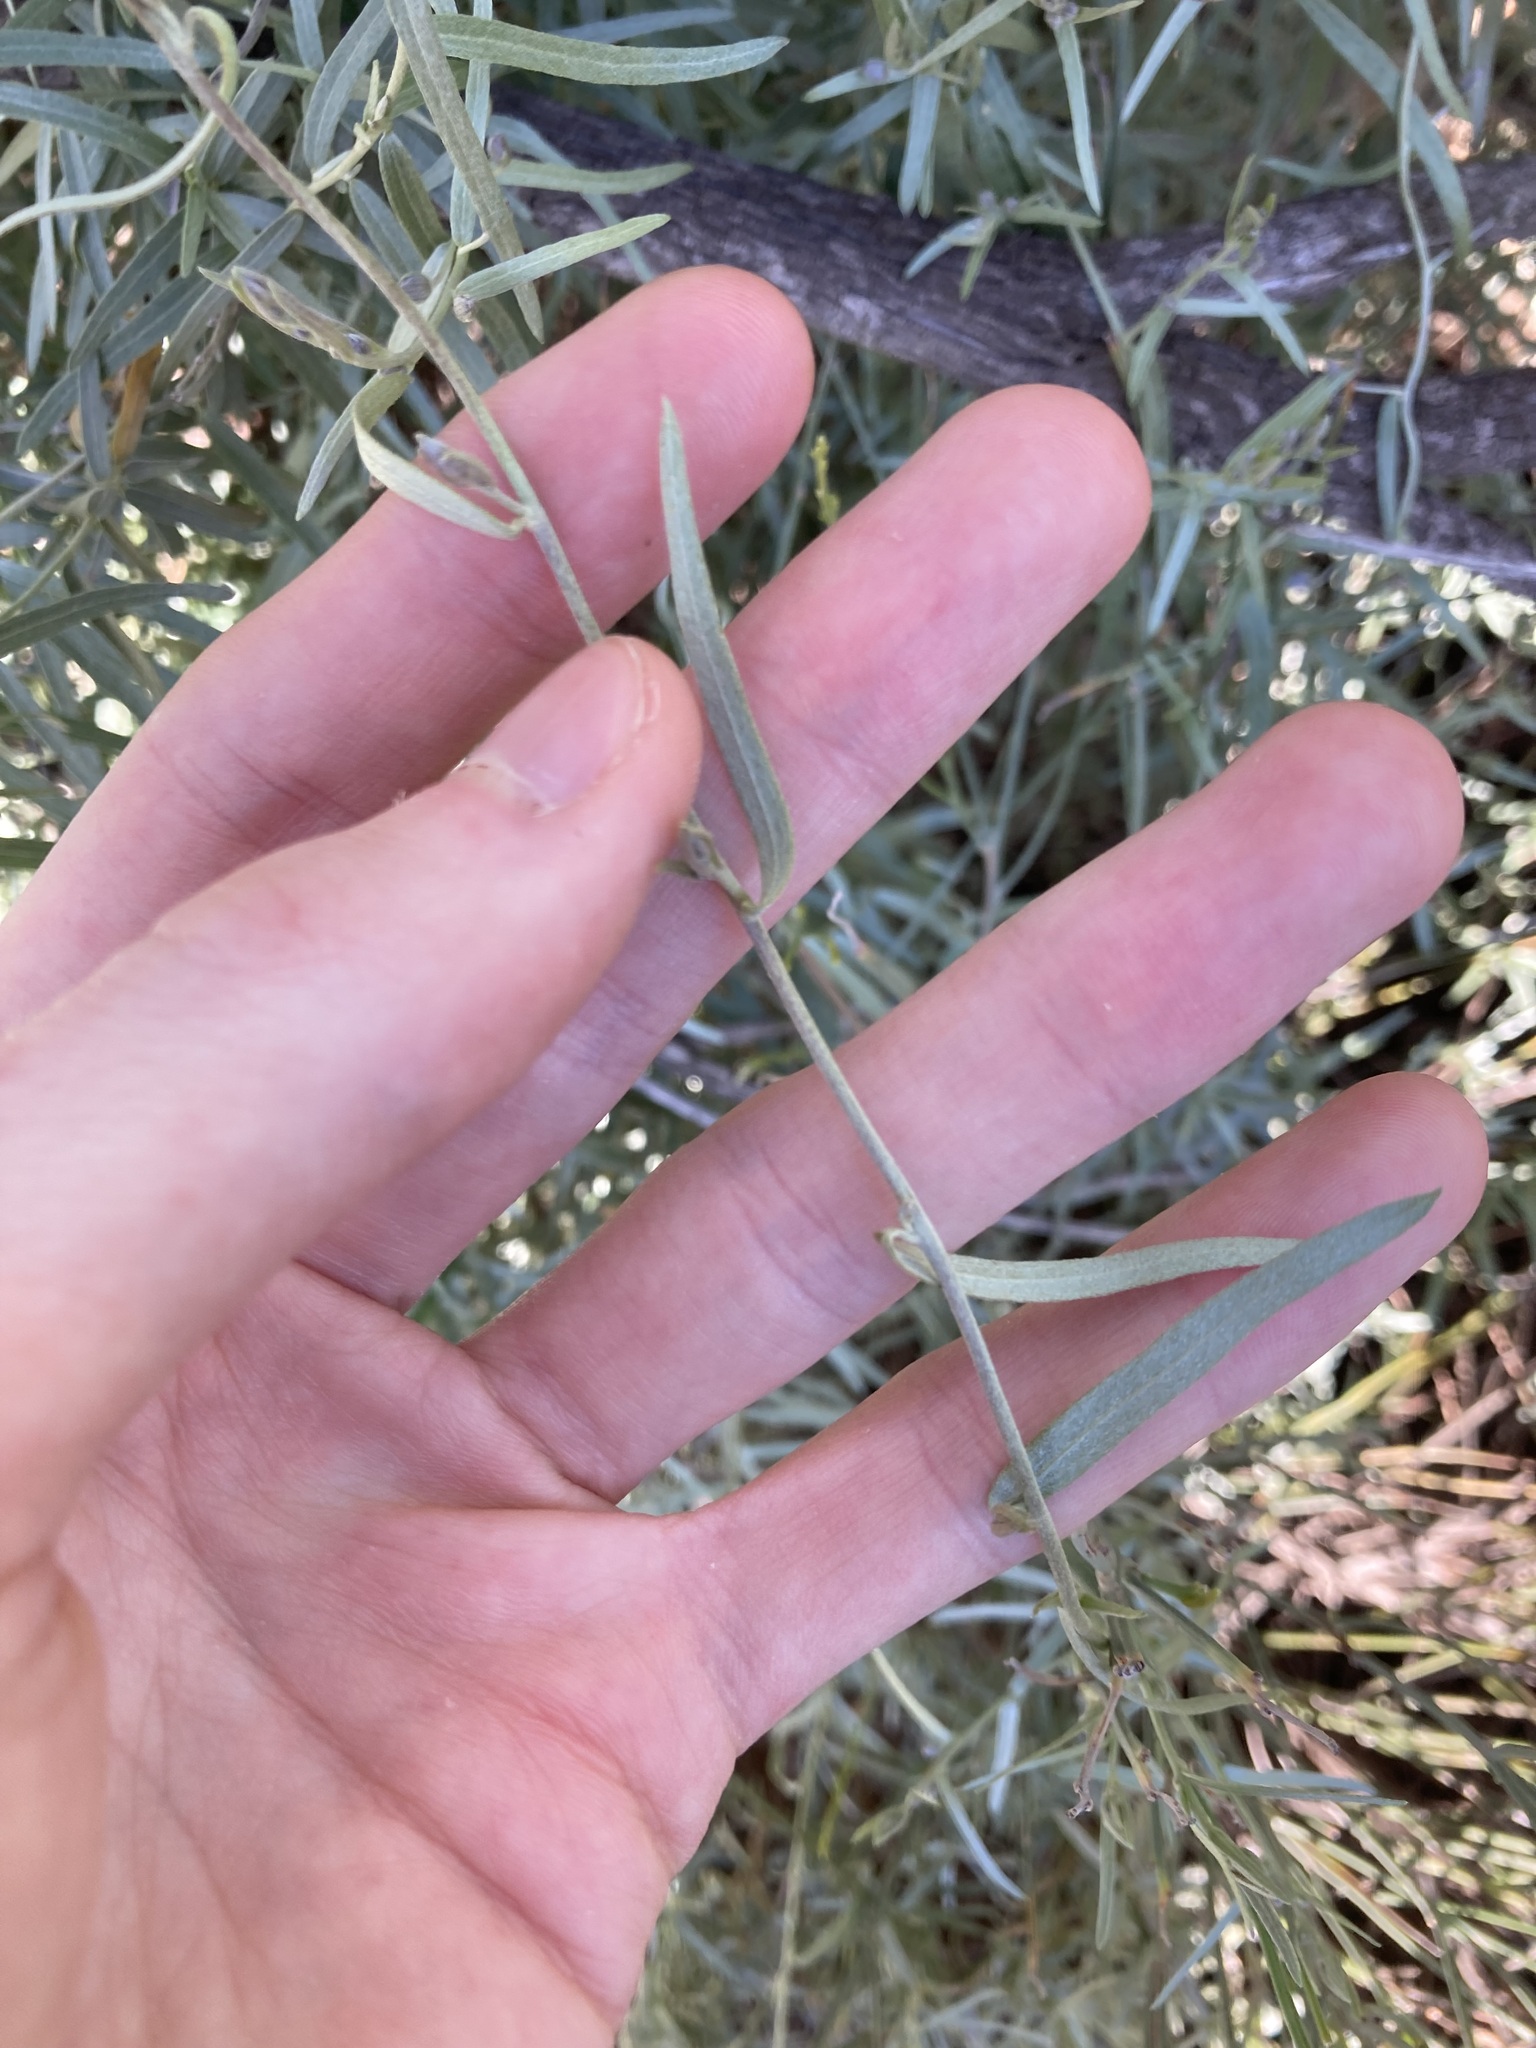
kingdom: Plantae
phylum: Tracheophyta
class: Magnoliopsida
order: Solanales
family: Convolvulaceae
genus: Duperreya
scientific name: Duperreya sericea
